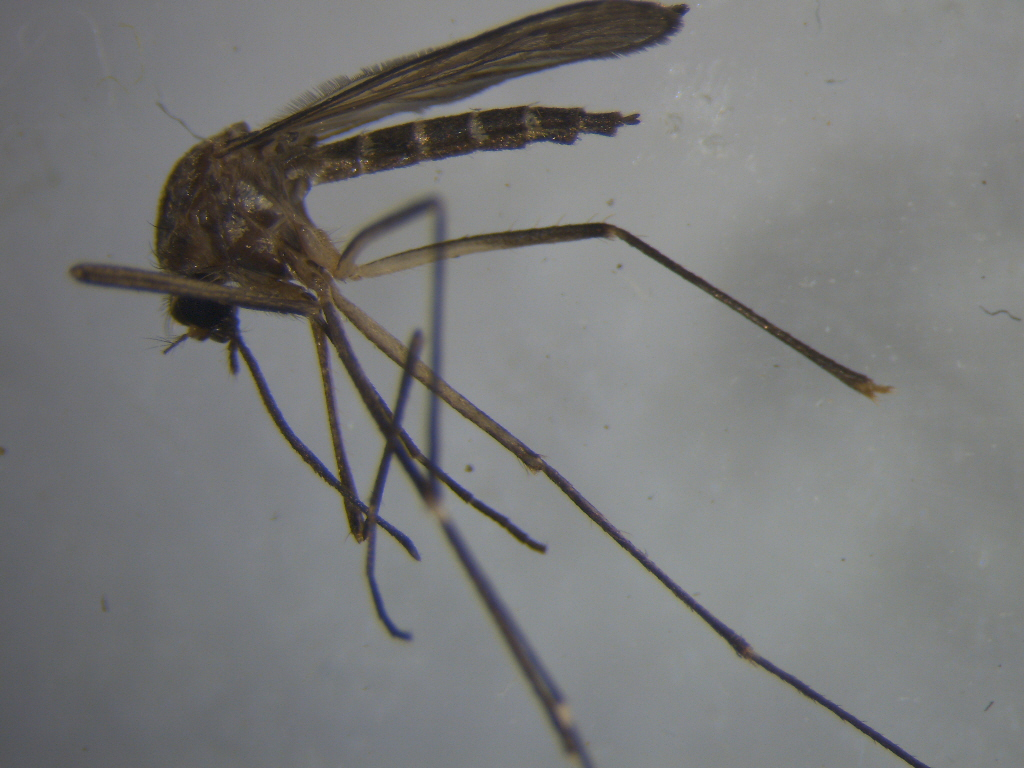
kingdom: Animalia
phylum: Arthropoda
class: Insecta
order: Diptera
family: Culicidae
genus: Aedes
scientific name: Aedes antipodeus
